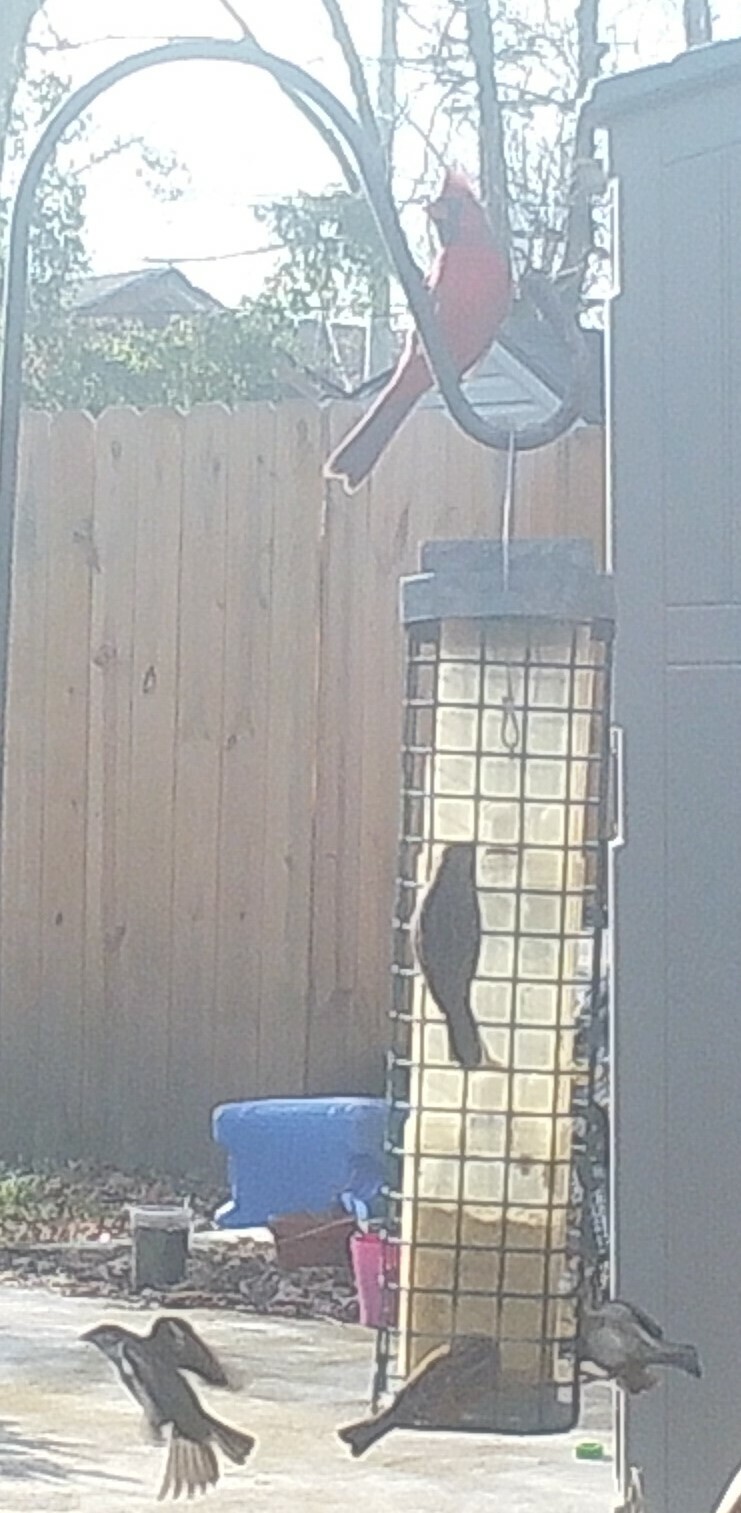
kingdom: Animalia
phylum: Chordata
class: Aves
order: Passeriformes
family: Cardinalidae
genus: Cardinalis
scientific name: Cardinalis cardinalis
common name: Northern cardinal
